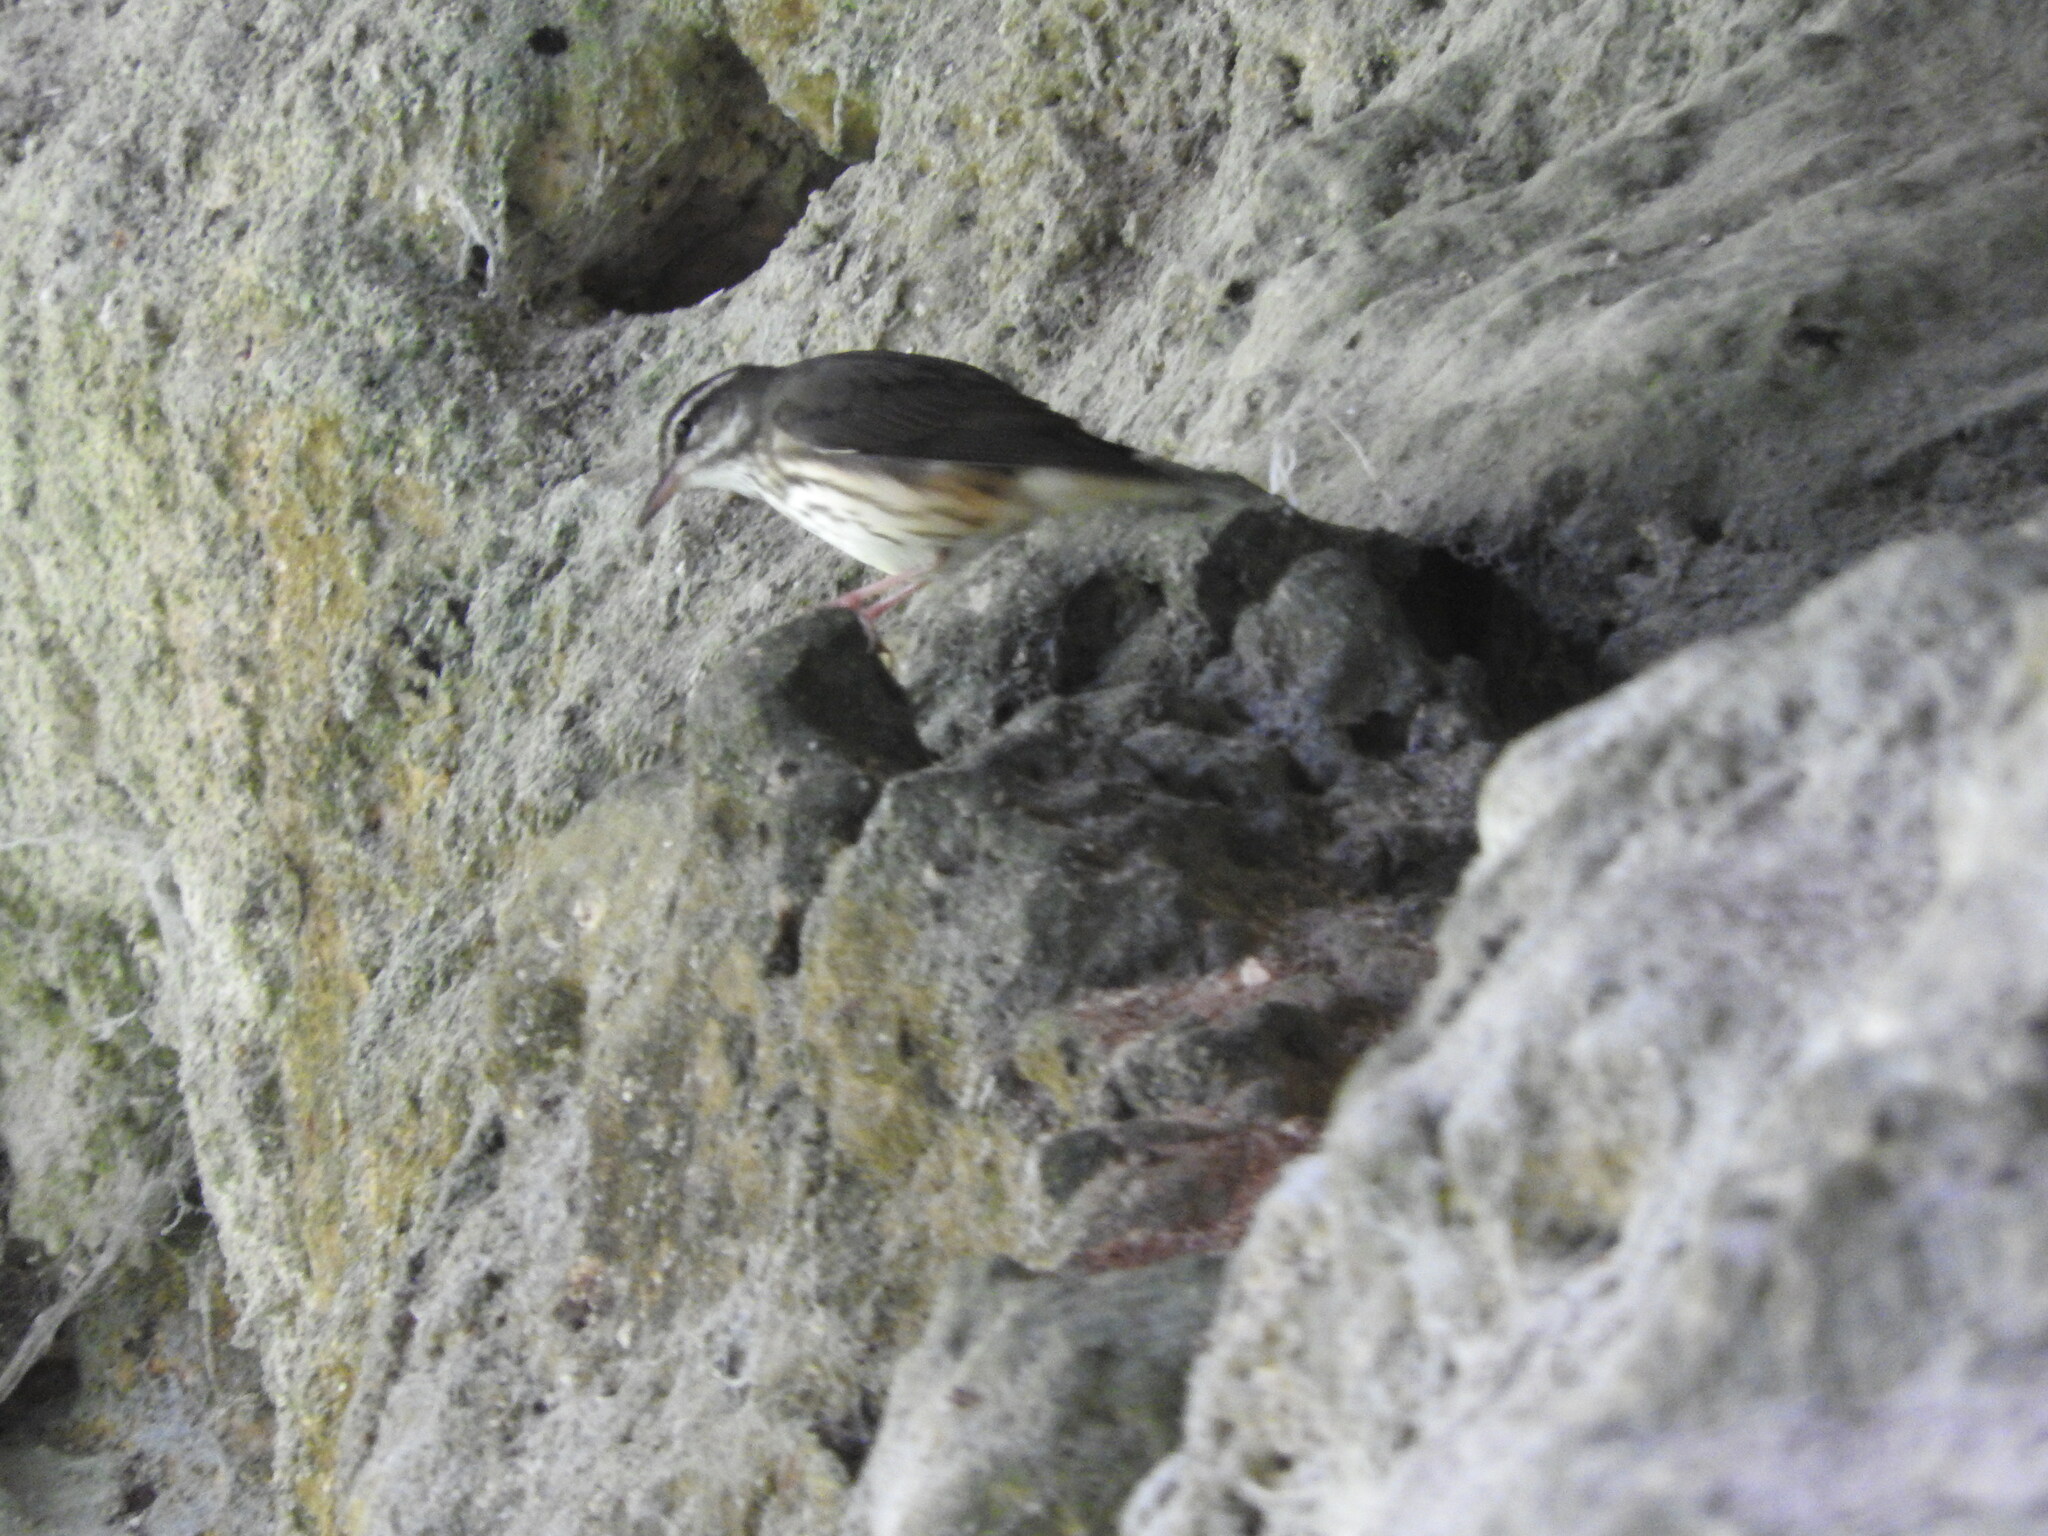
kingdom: Animalia
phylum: Chordata
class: Aves
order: Passeriformes
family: Parulidae
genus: Parkesia
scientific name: Parkesia motacilla
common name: Louisiana waterthrush
